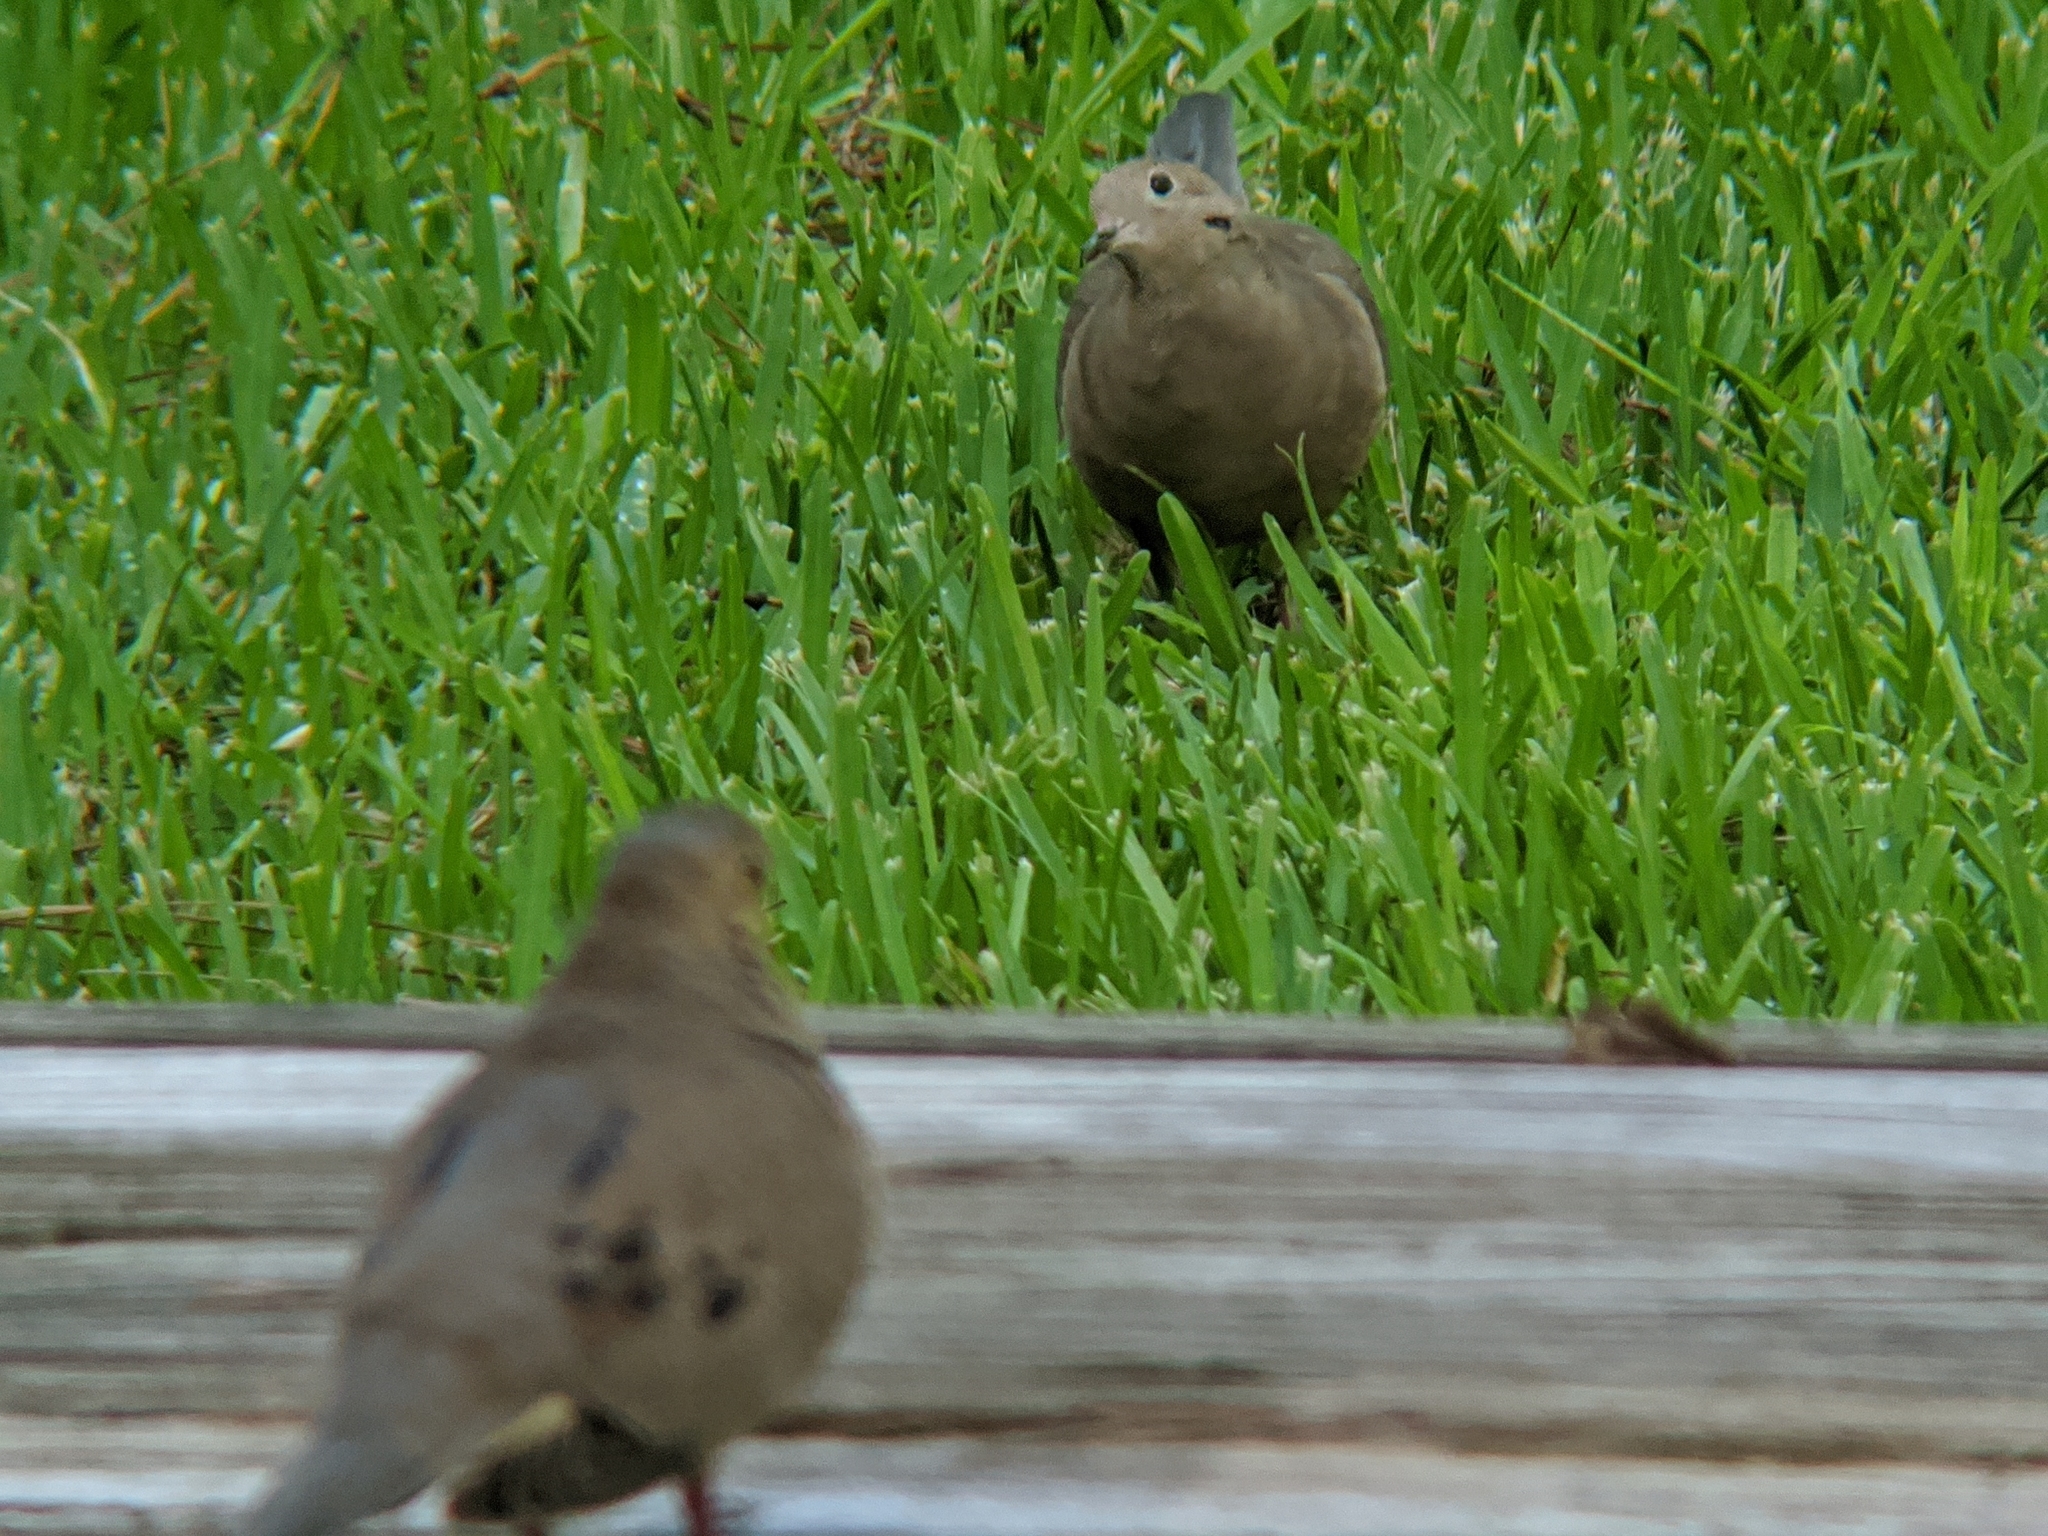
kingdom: Animalia
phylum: Chordata
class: Aves
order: Columbiformes
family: Columbidae
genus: Zenaida
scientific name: Zenaida macroura
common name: Mourning dove
